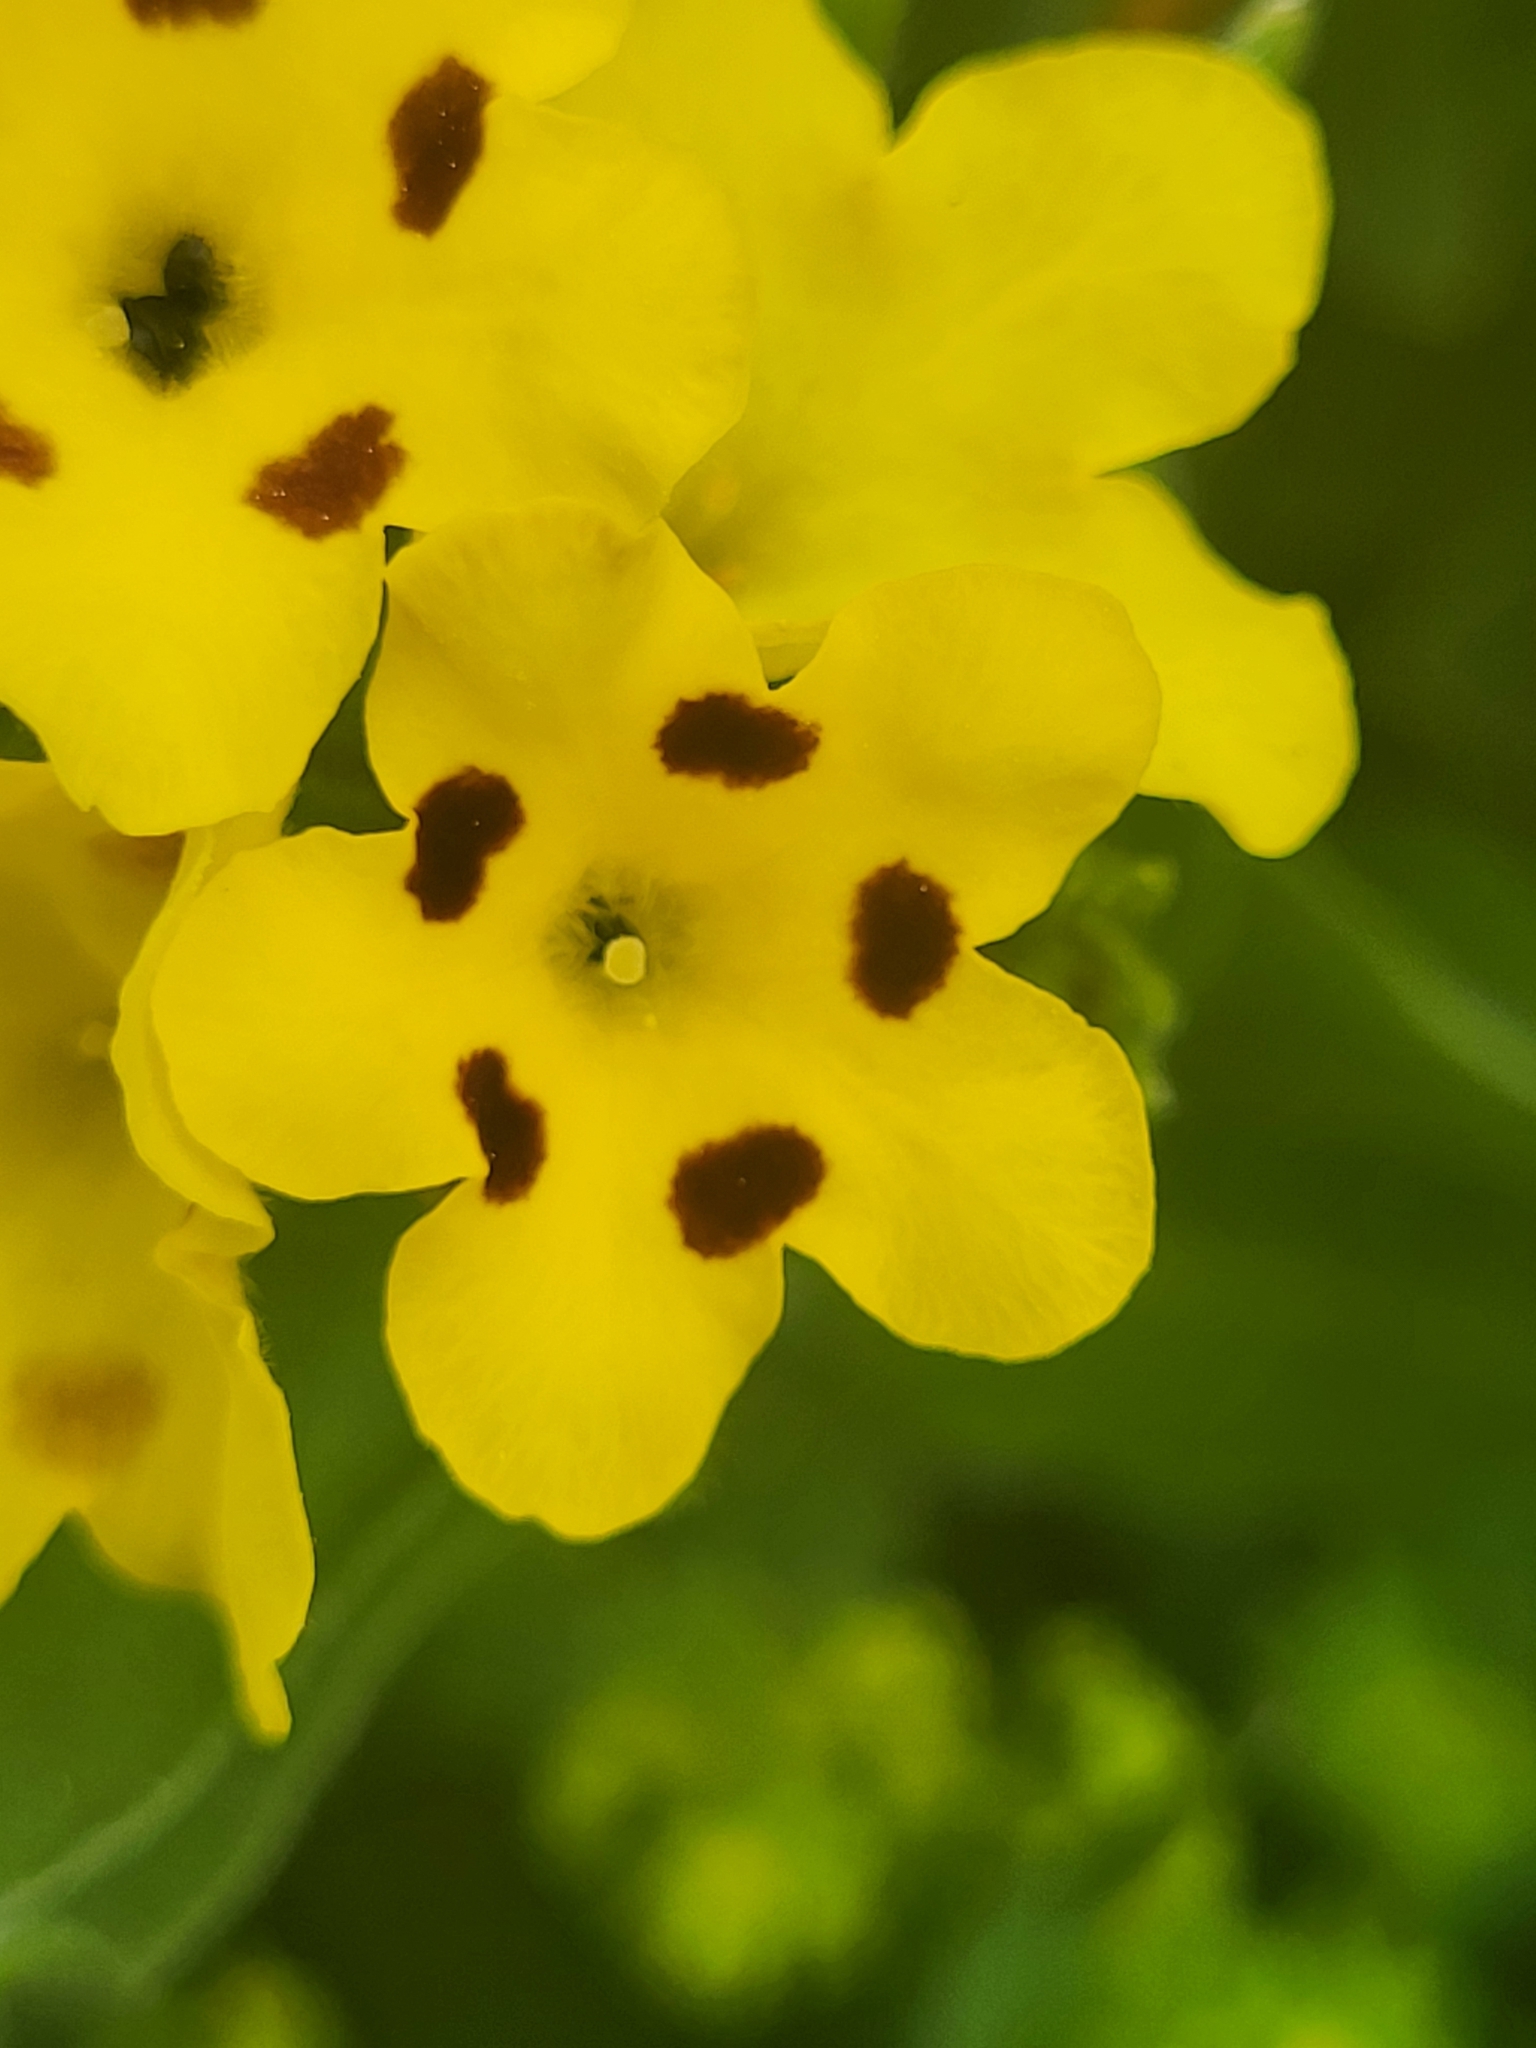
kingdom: Plantae
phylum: Tracheophyta
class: Magnoliopsida
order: Boraginales
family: Boraginaceae
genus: Huynhia
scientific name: Huynhia pulchra
